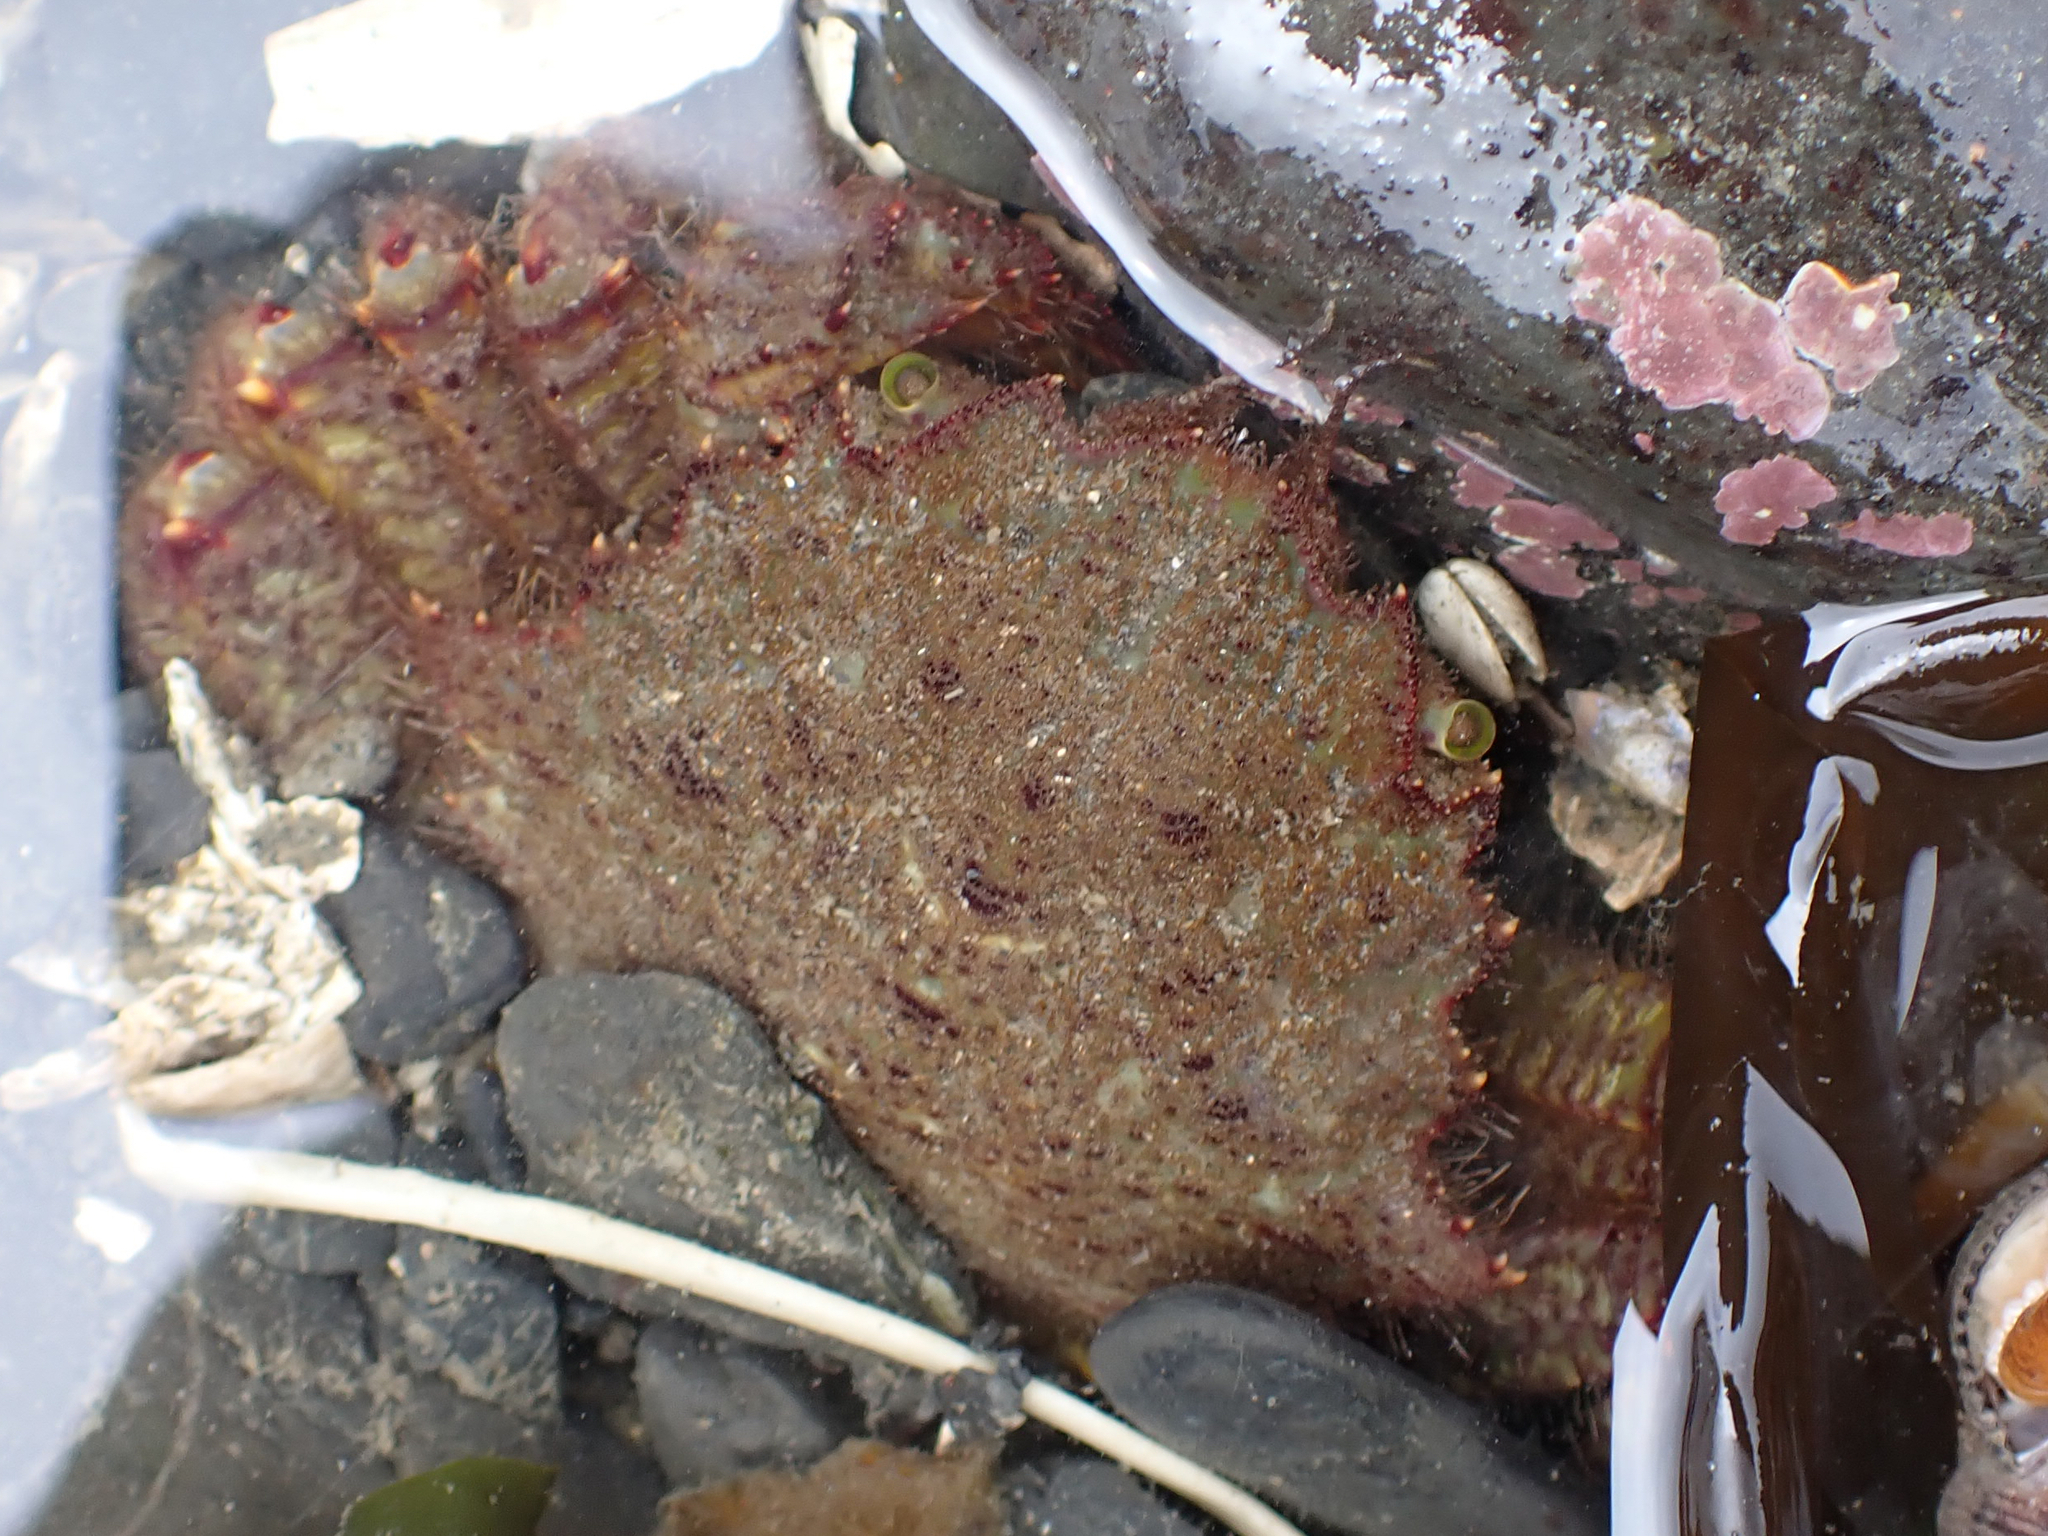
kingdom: Animalia
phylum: Arthropoda
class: Malacostraca
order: Decapoda
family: Cheiragonidae
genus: Telmessus
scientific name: Telmessus cheiragonus
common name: Helmet crab
